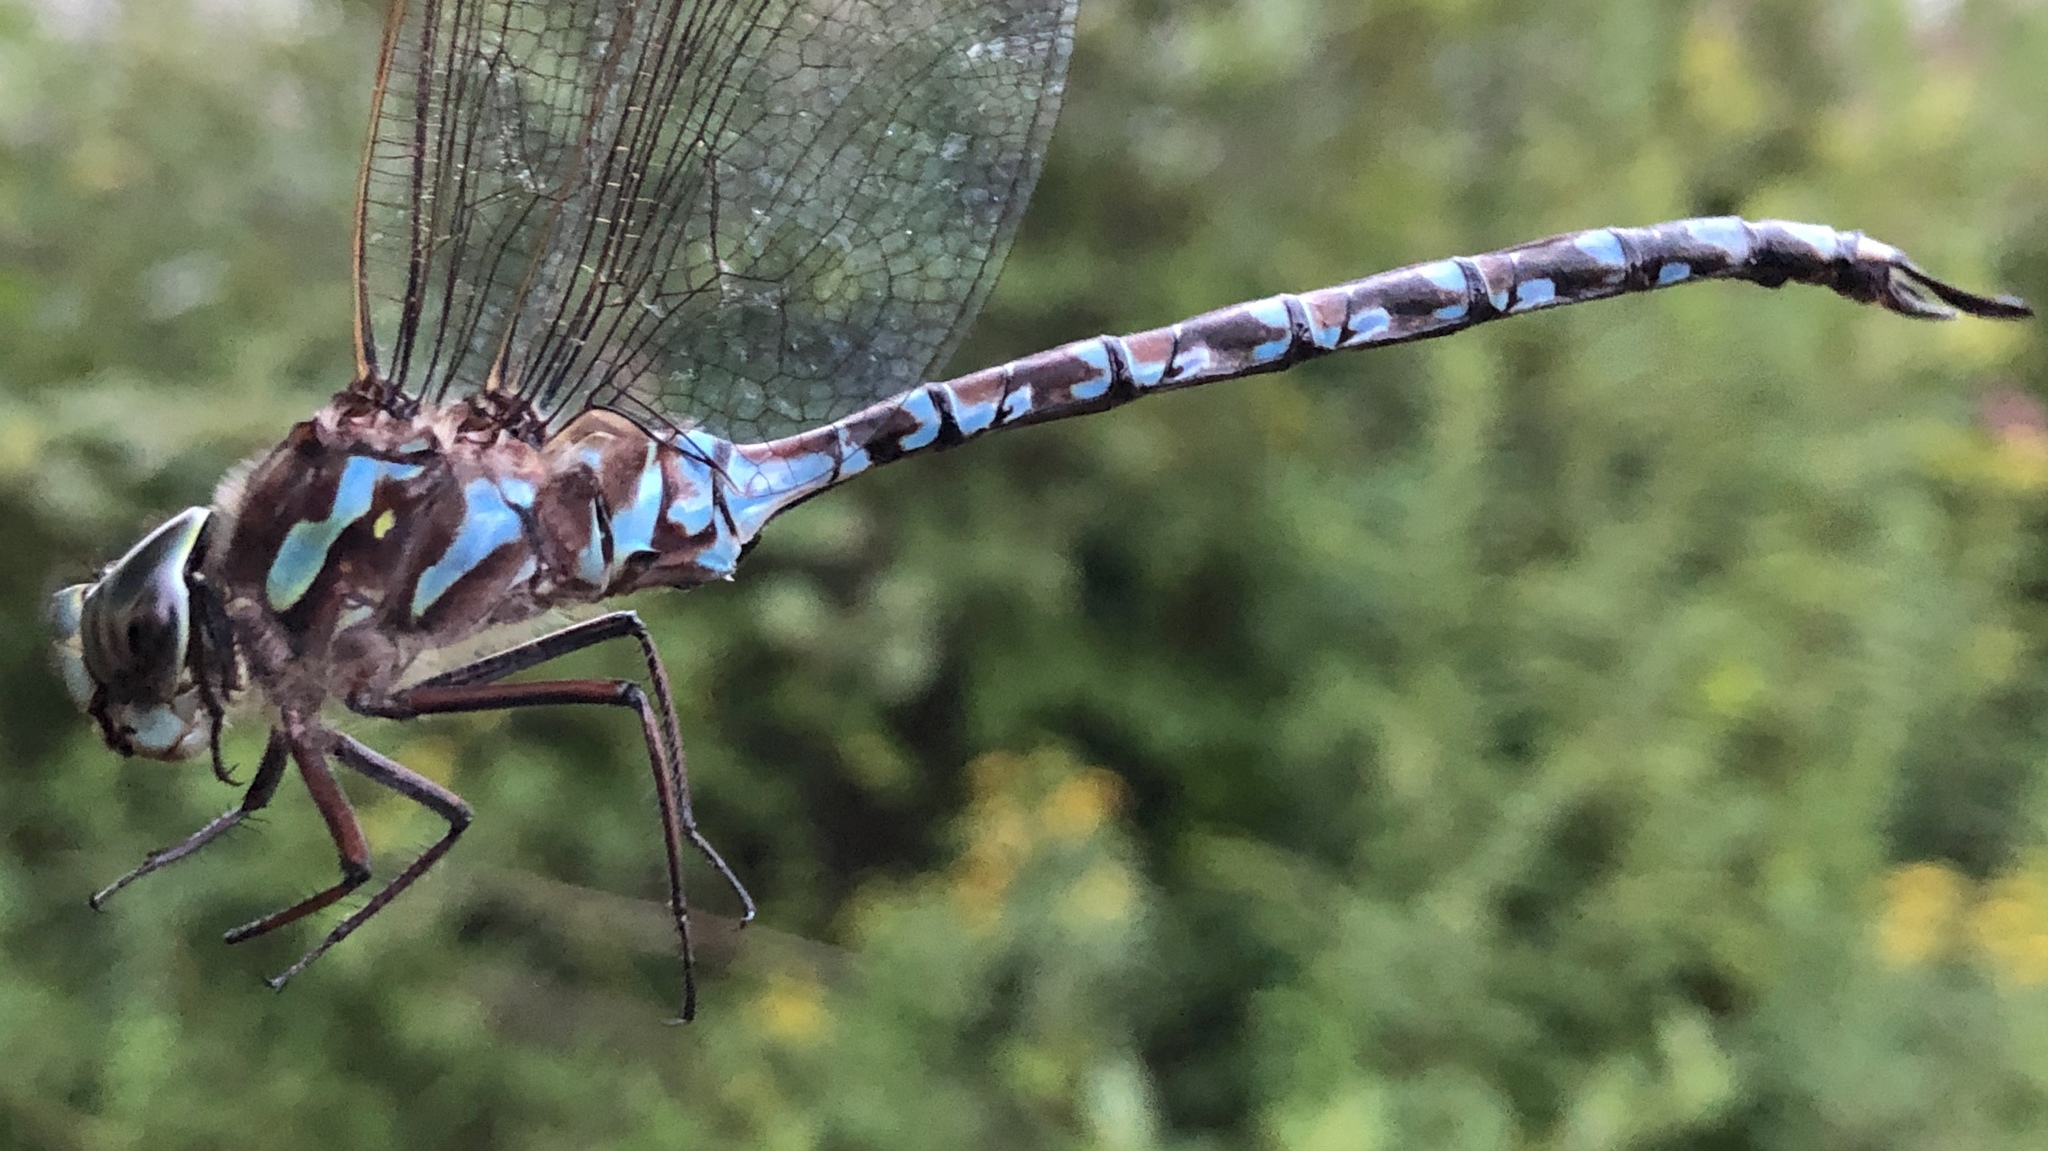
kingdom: Animalia
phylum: Arthropoda
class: Insecta
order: Odonata
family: Aeshnidae
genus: Aeshna
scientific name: Aeshna canadensis
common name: Canada darner
